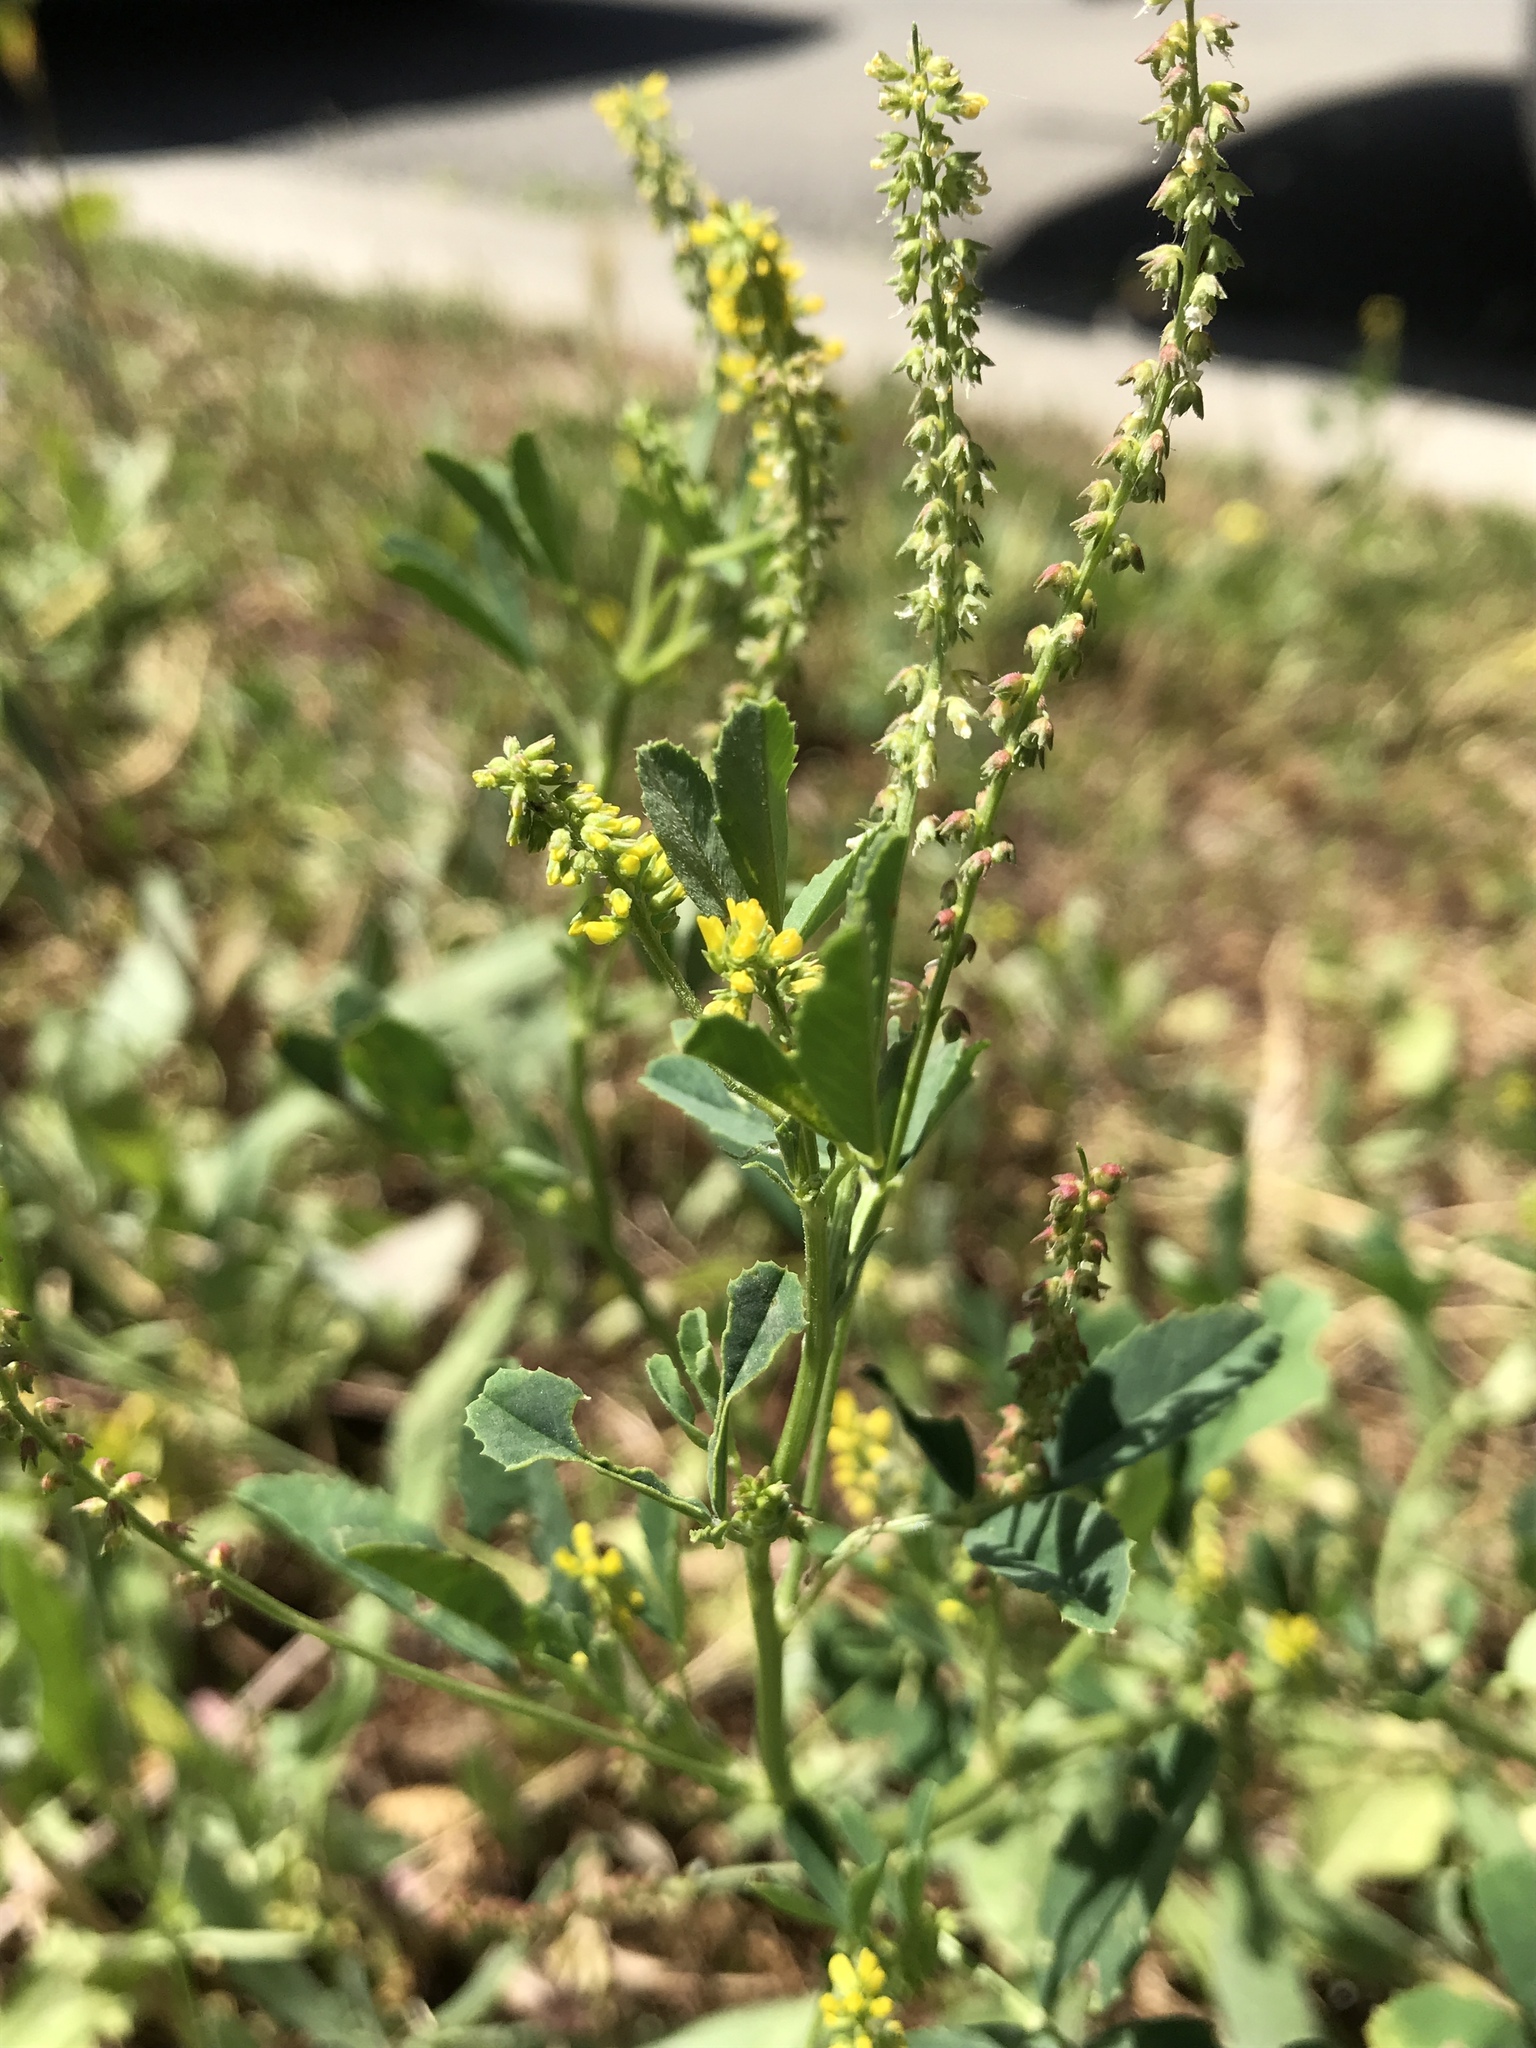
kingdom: Plantae
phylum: Tracheophyta
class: Magnoliopsida
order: Fabales
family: Fabaceae
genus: Melilotus
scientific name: Melilotus indicus
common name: Small melilot
